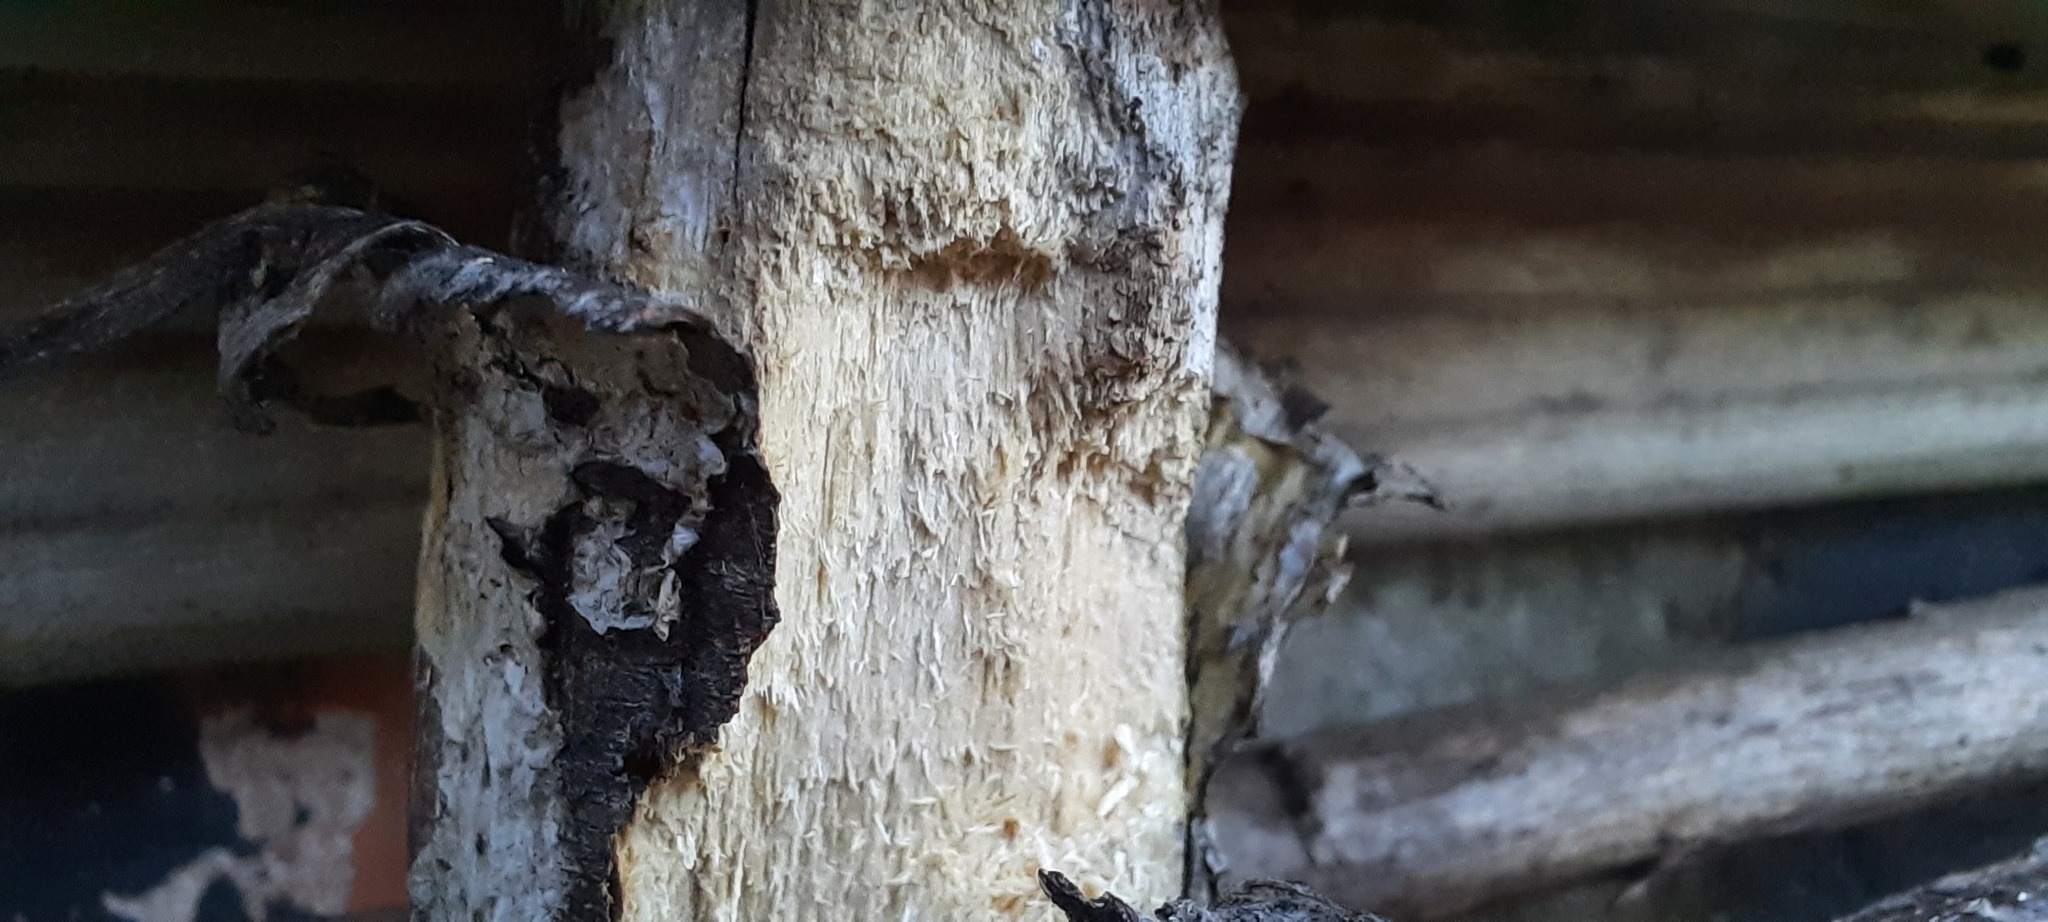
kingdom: Animalia
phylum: Arthropoda
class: Insecta
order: Hymenoptera
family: Vespidae
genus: Vespa
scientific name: Vespa crabro
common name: Hornet
